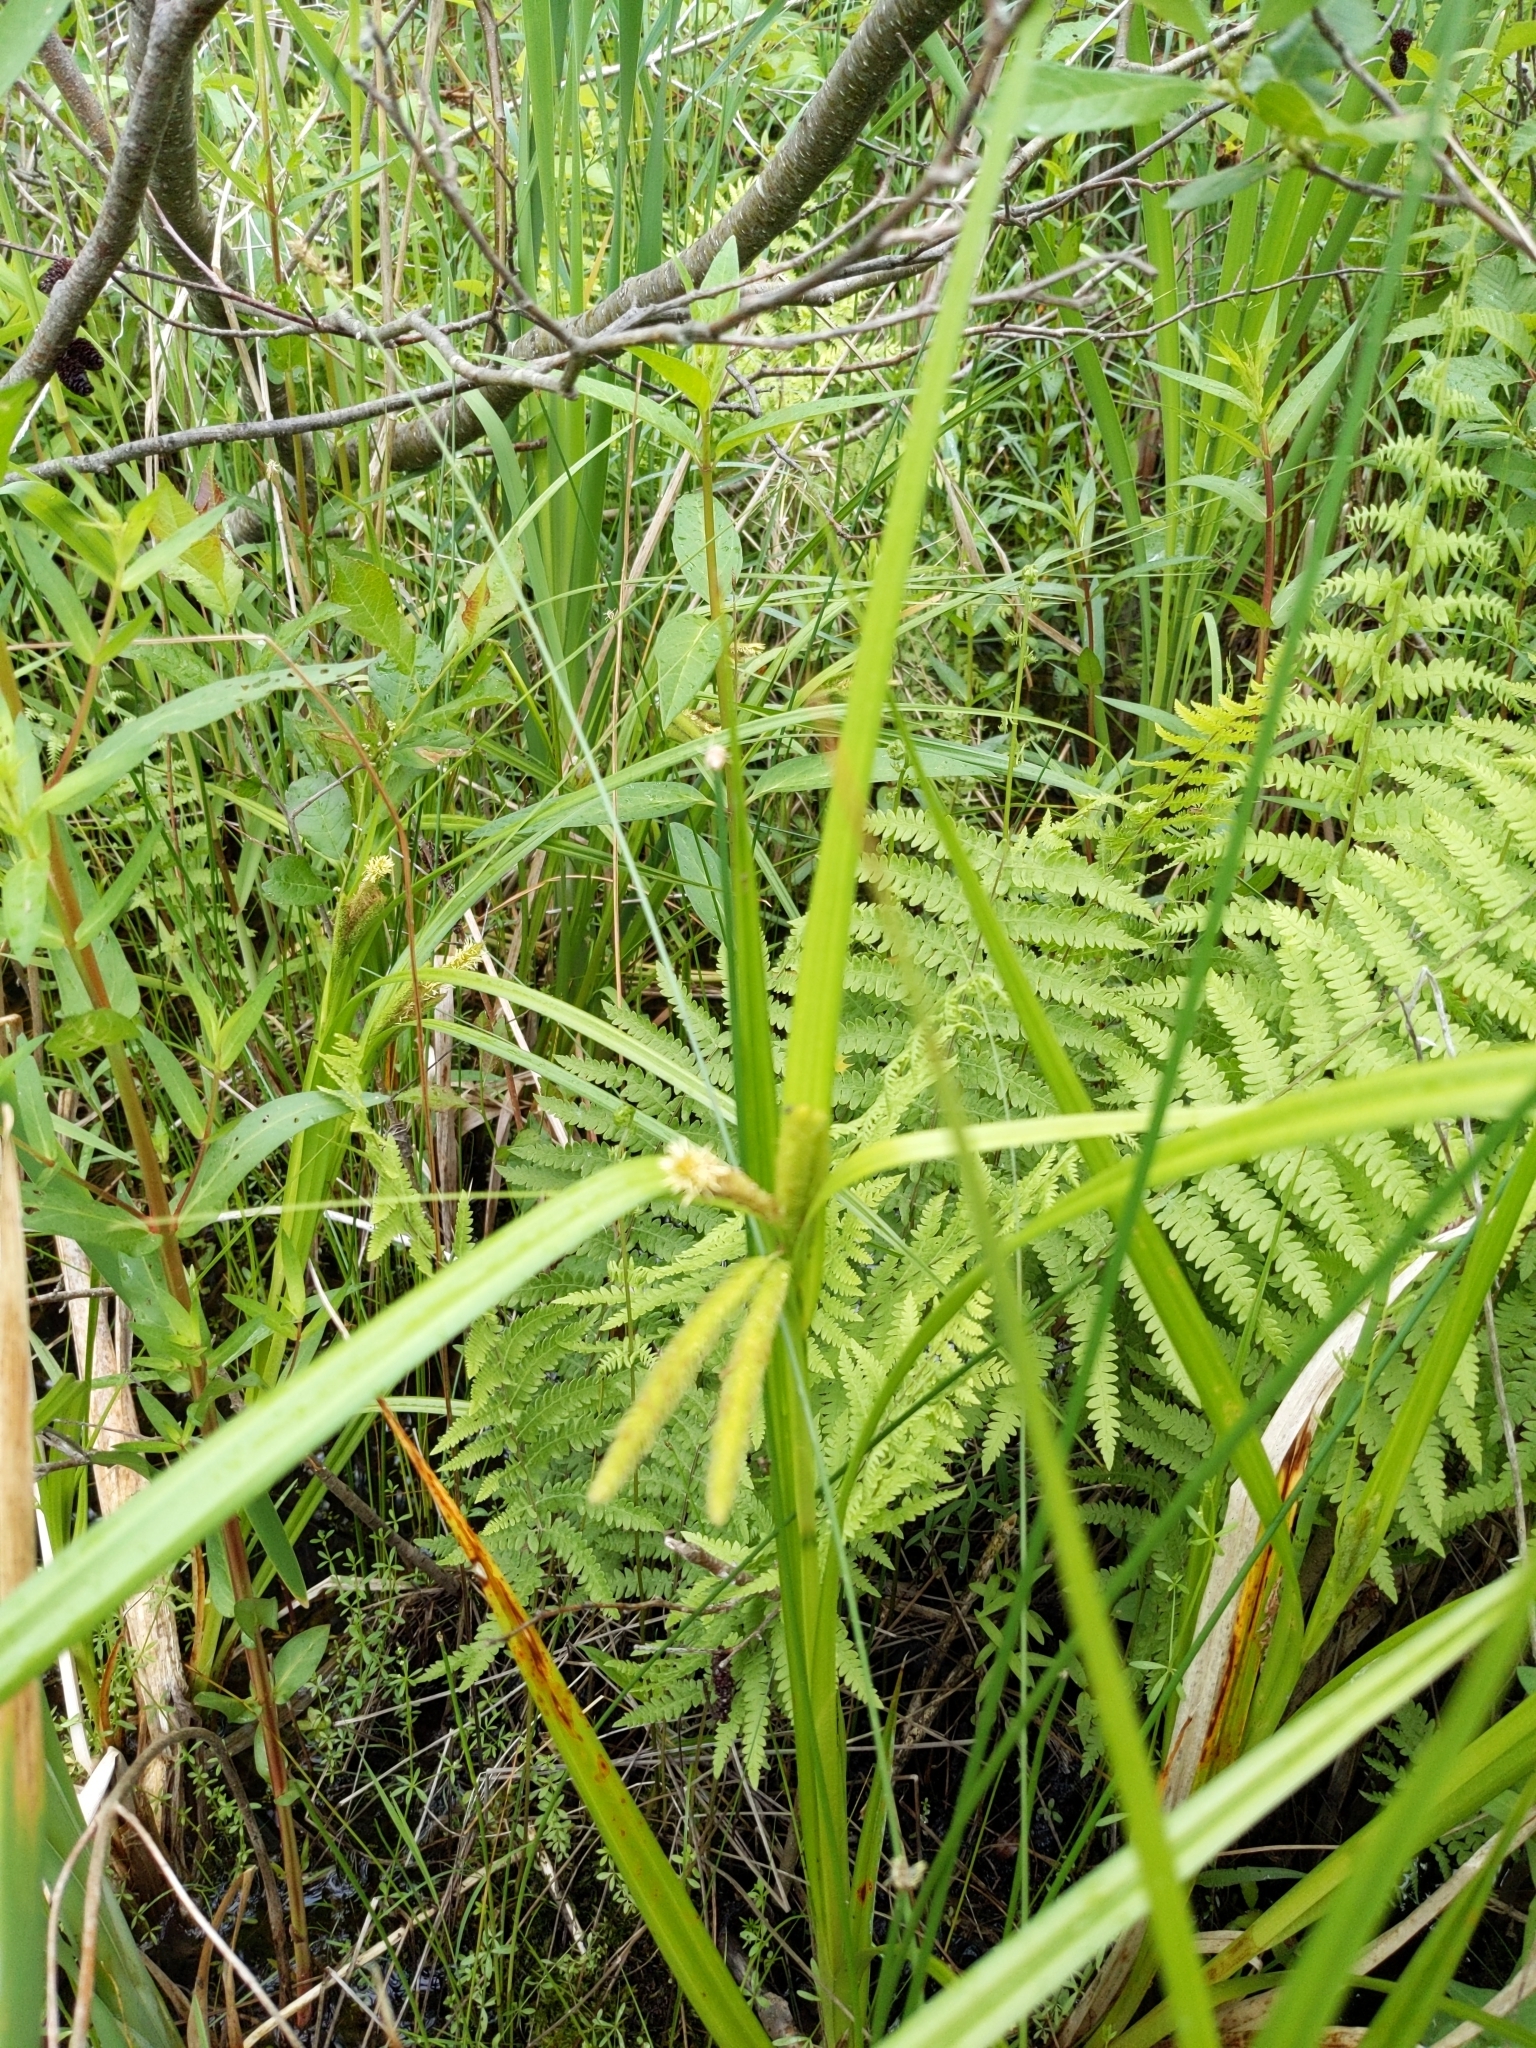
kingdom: Plantae
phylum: Tracheophyta
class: Liliopsida
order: Poales
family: Cyperaceae
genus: Carex
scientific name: Carex
